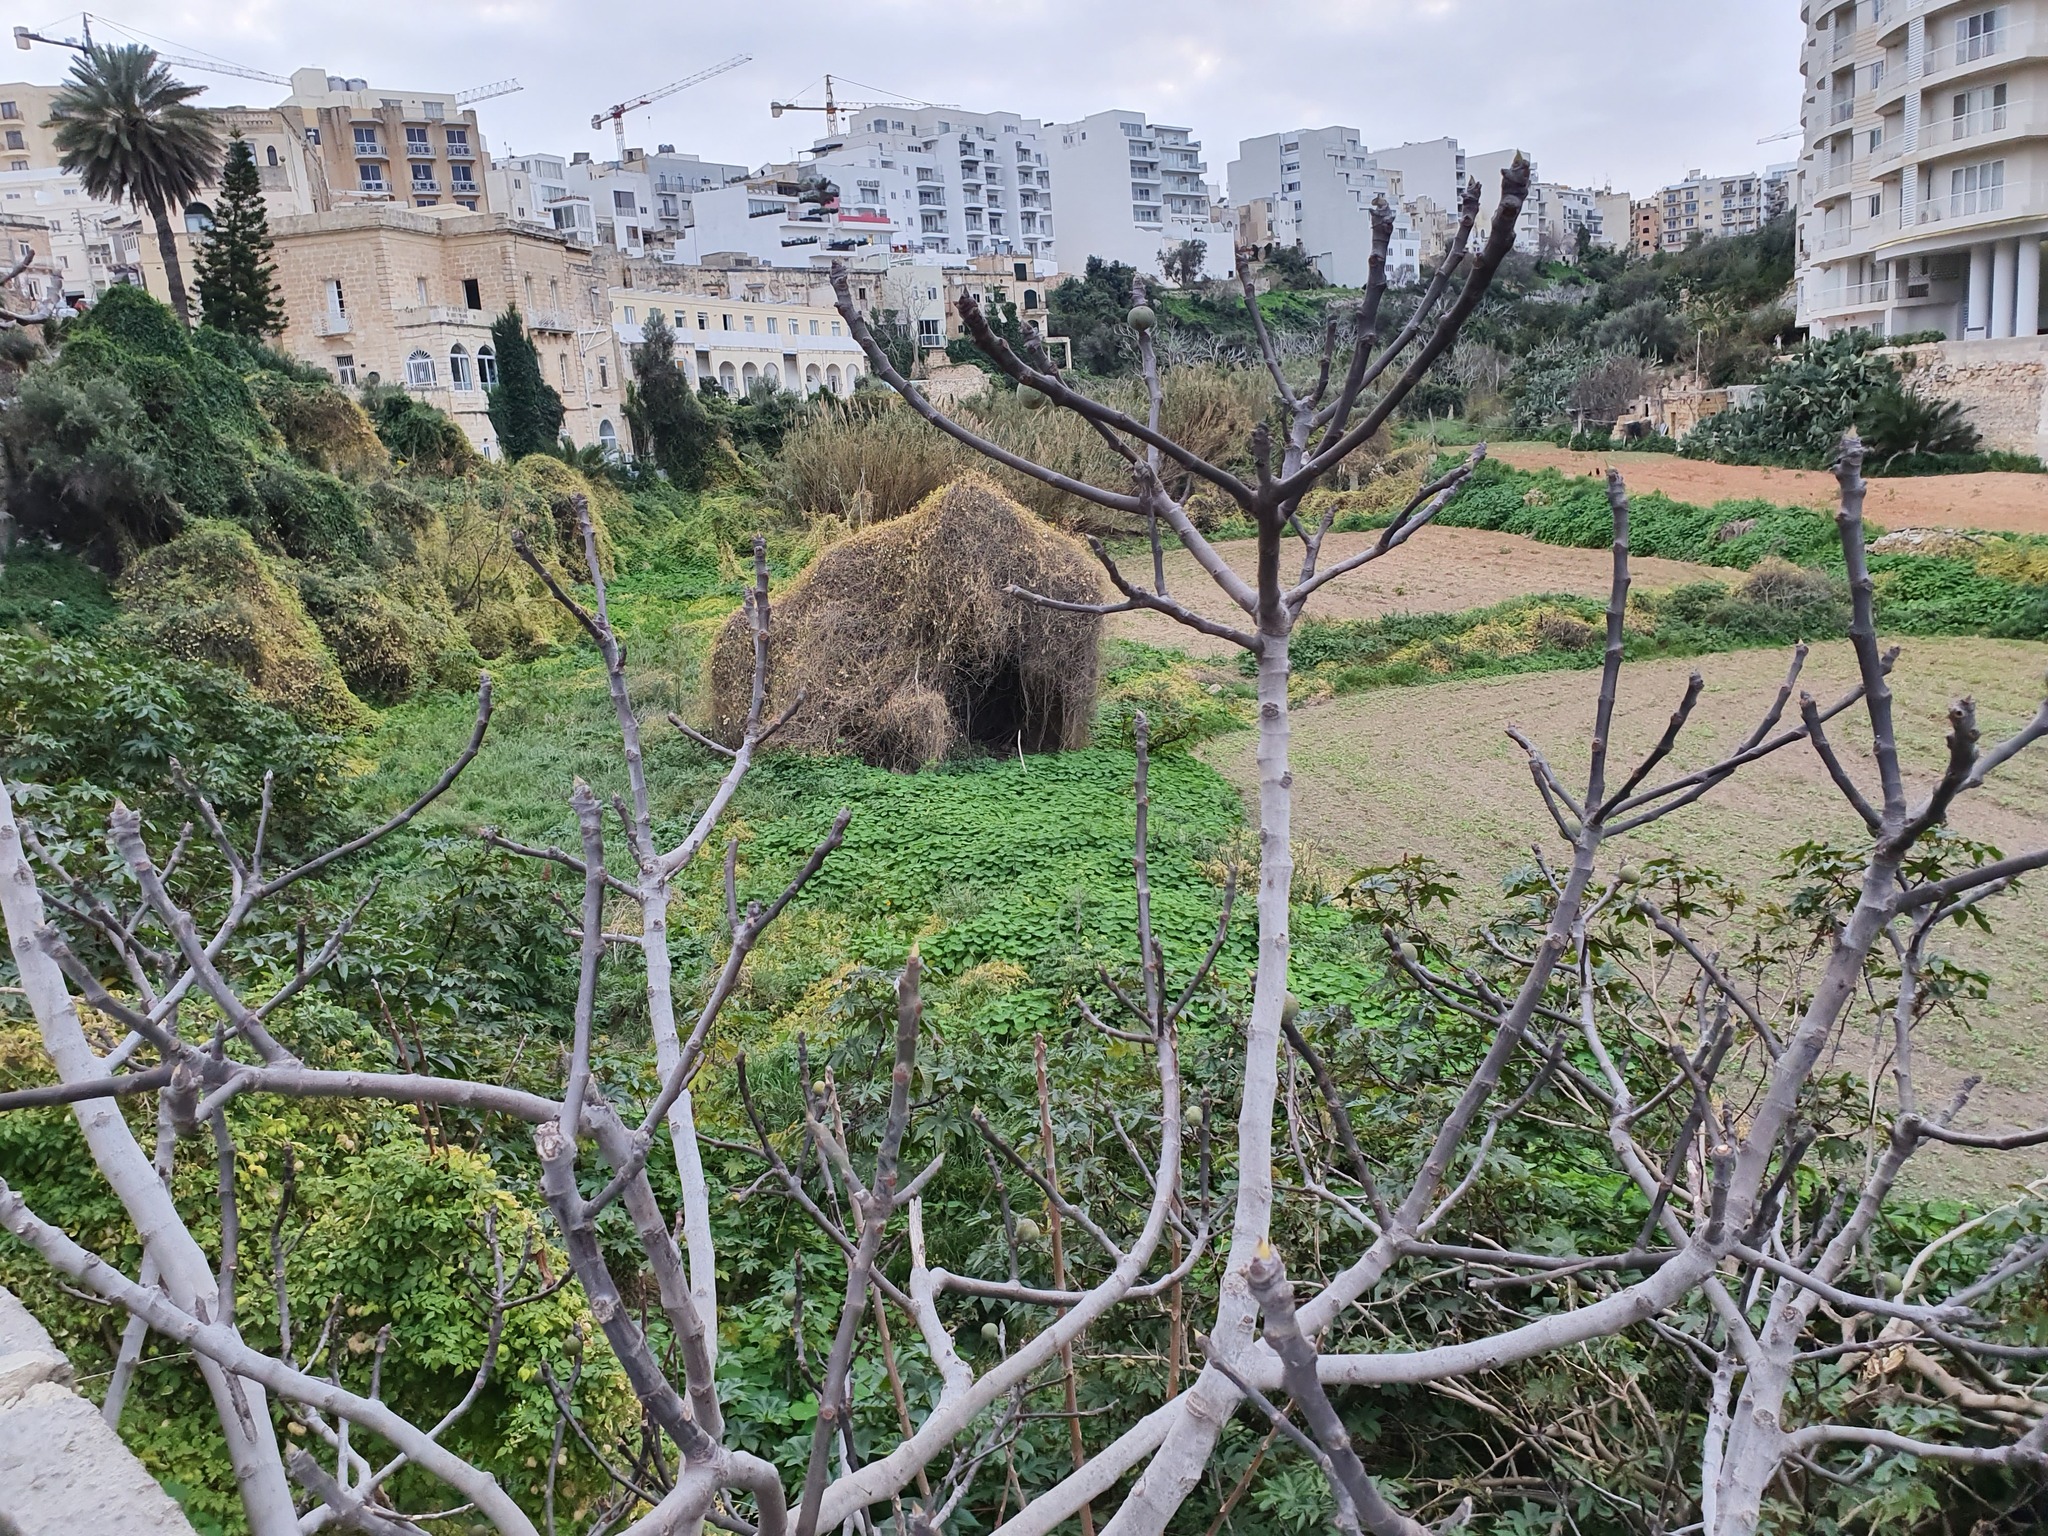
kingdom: Plantae
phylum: Tracheophyta
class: Magnoliopsida
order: Rosales
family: Moraceae
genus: Ficus
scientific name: Ficus carica
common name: Fig
